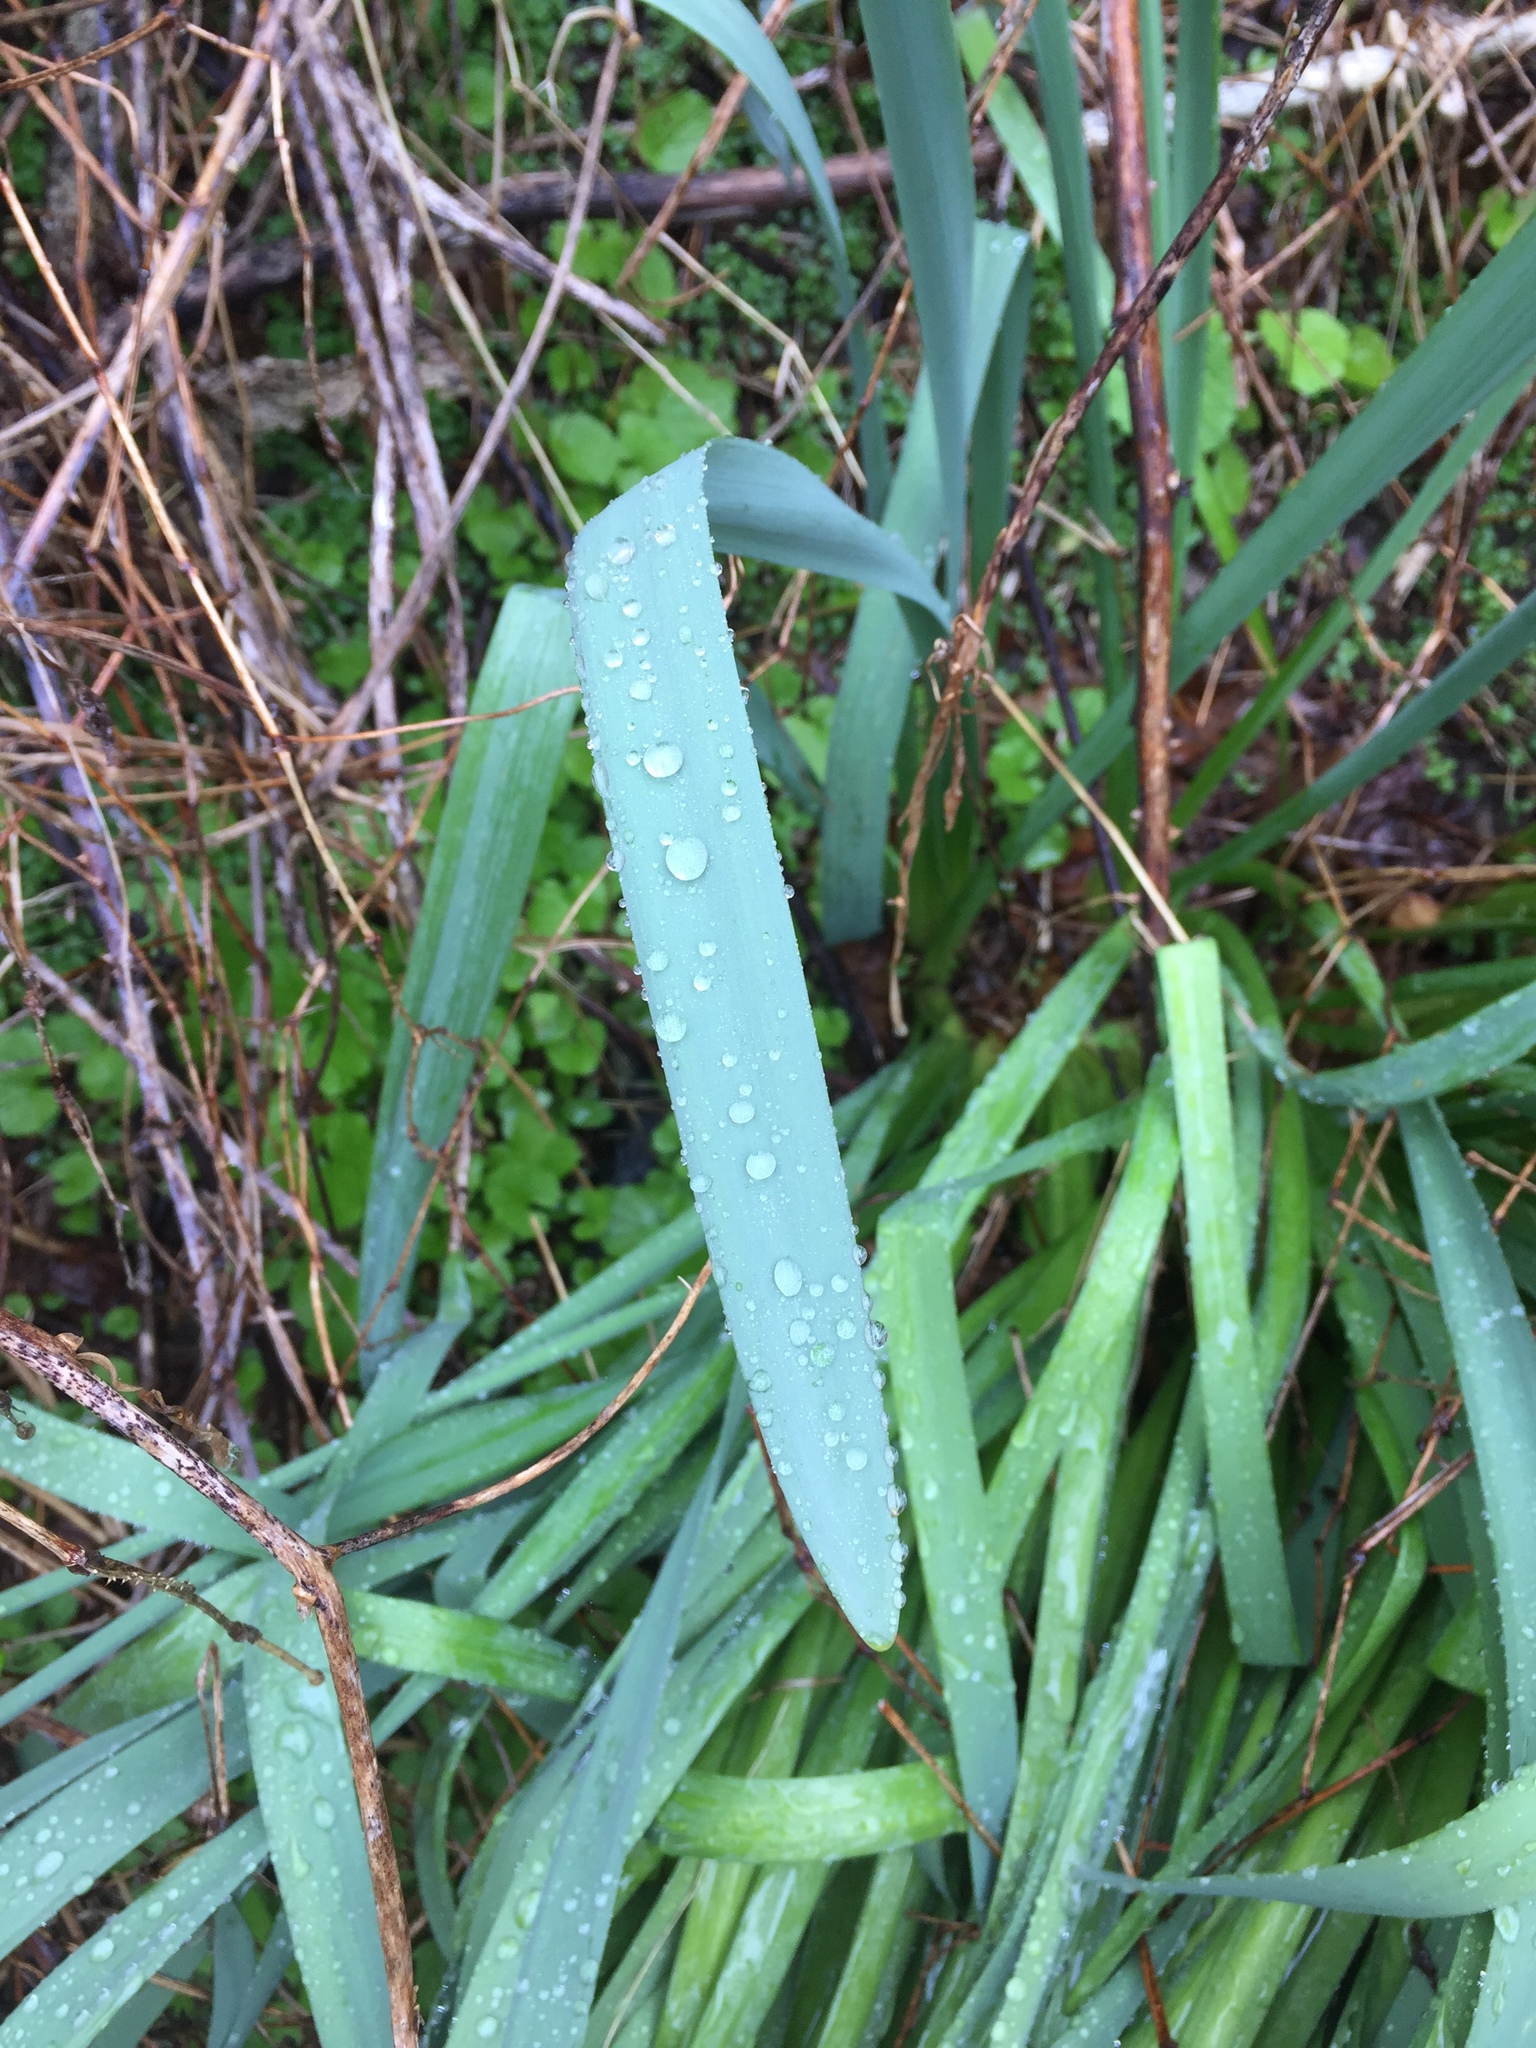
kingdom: Plantae
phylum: Tracheophyta
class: Liliopsida
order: Asparagales
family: Amaryllidaceae
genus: Narcissus
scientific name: Narcissus
